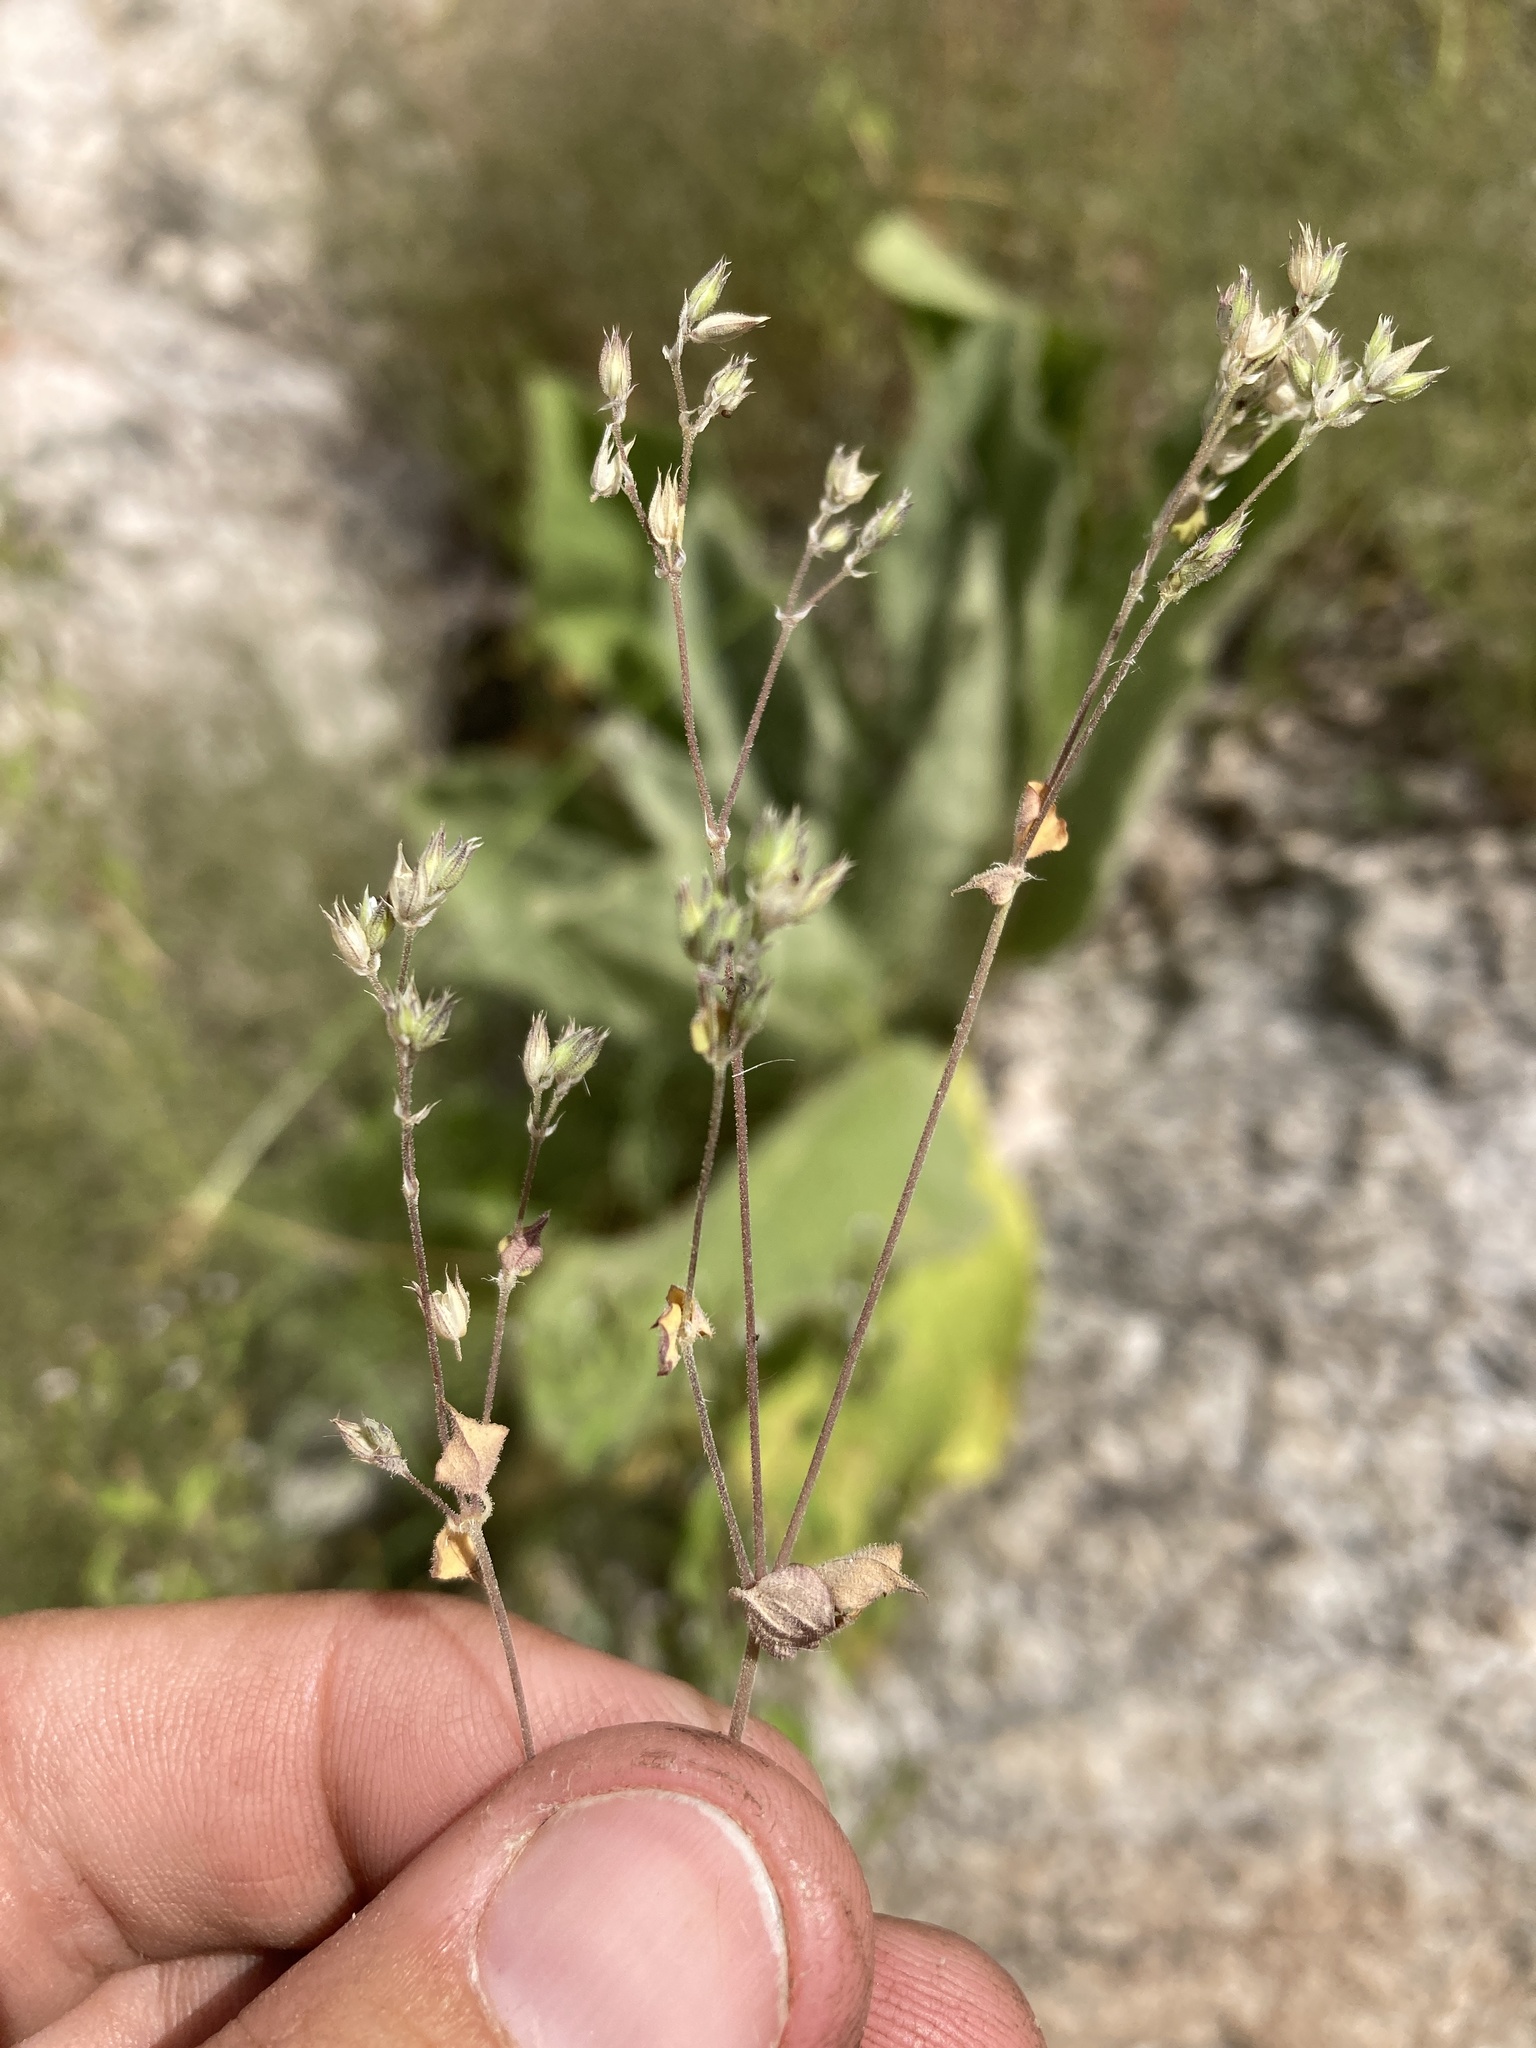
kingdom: Plantae
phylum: Tracheophyta
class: Magnoliopsida
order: Caryophyllales
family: Caryophyllaceae
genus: Drymaria
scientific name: Drymaria glandulosa
